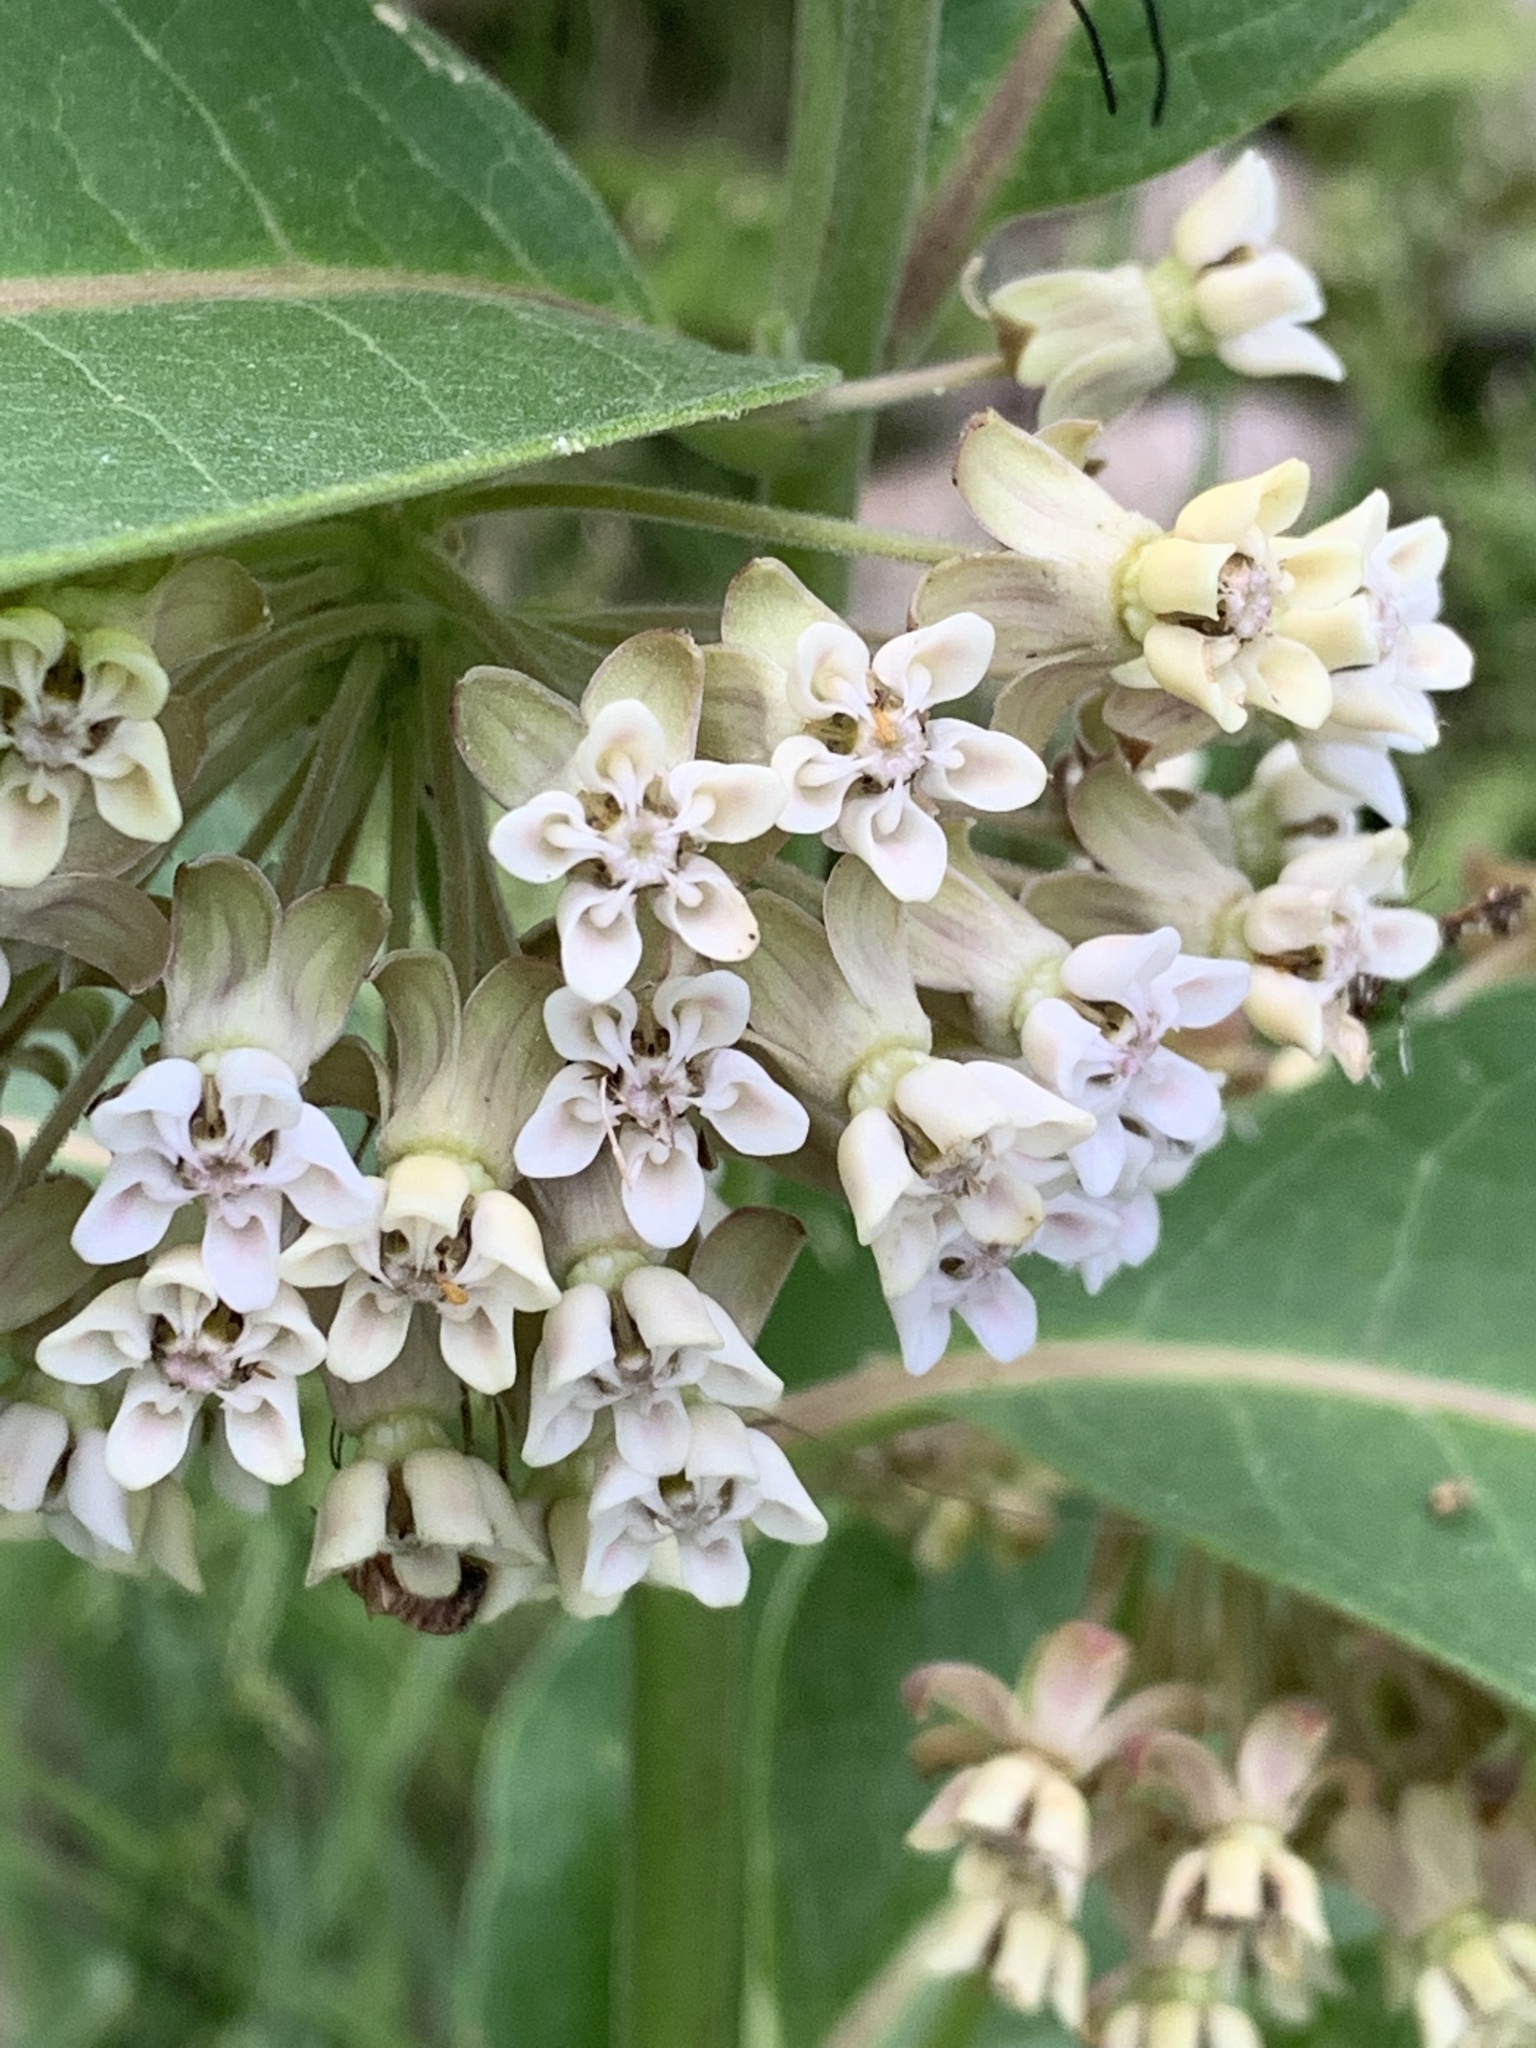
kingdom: Plantae
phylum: Tracheophyta
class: Magnoliopsida
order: Gentianales
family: Apocynaceae
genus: Asclepias
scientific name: Asclepias syriaca
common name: Common milkweed
